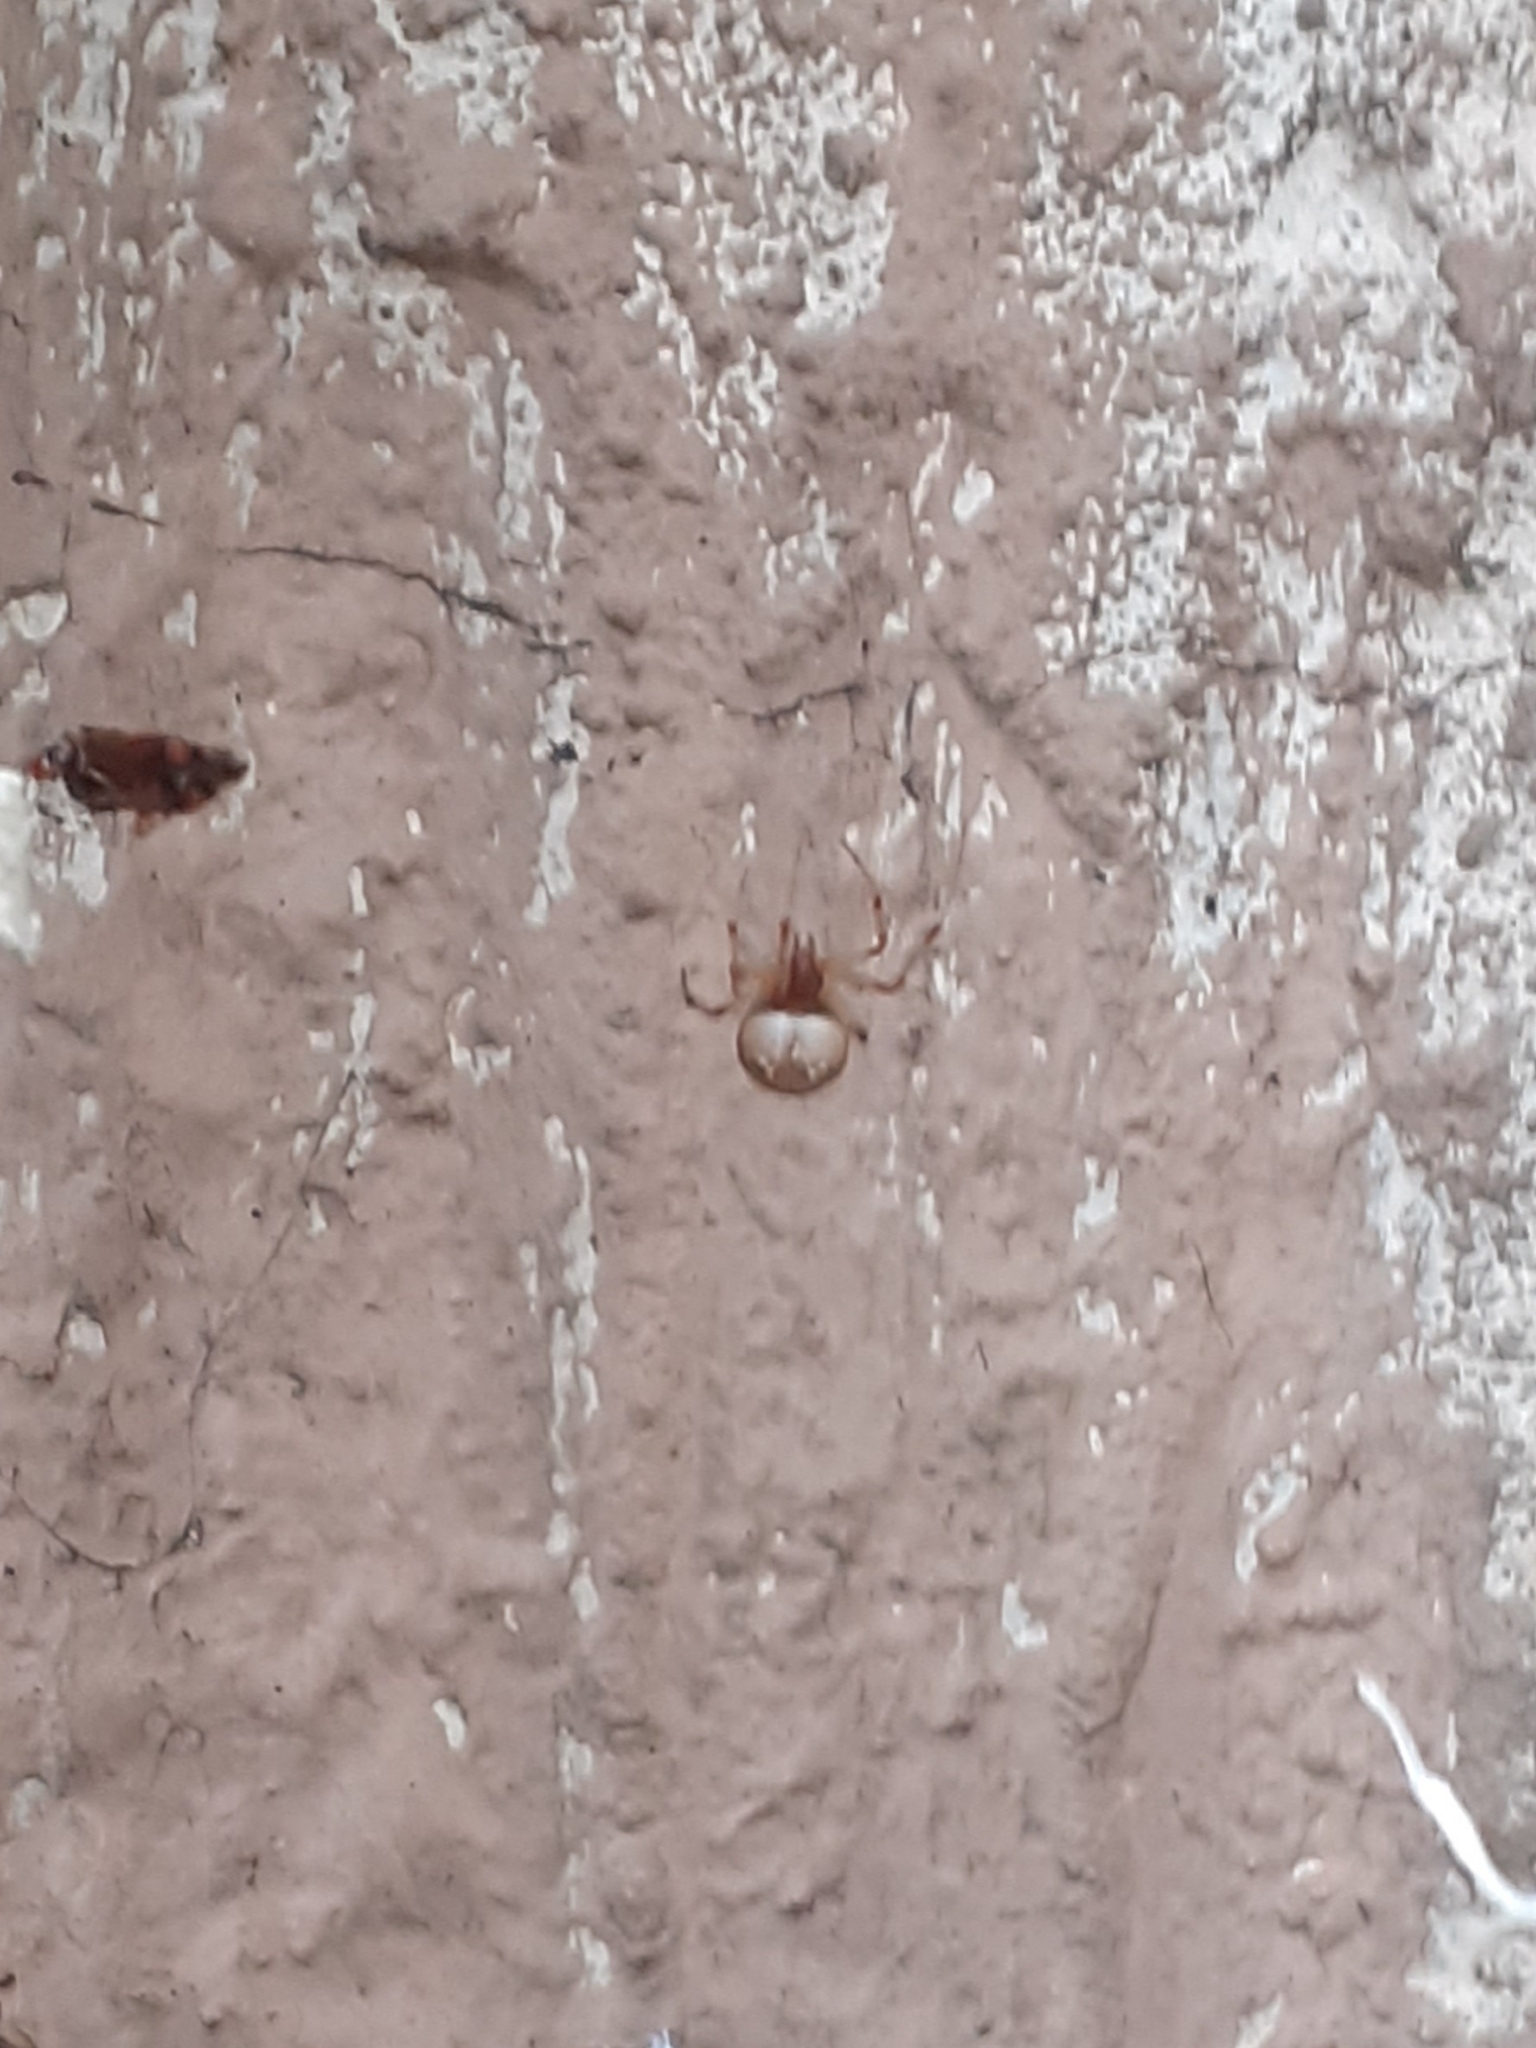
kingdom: Animalia
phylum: Arthropoda
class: Arachnida
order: Araneae
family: Theridiidae
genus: Parasteatoda
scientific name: Parasteatoda tepidariorum
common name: Common house spider
